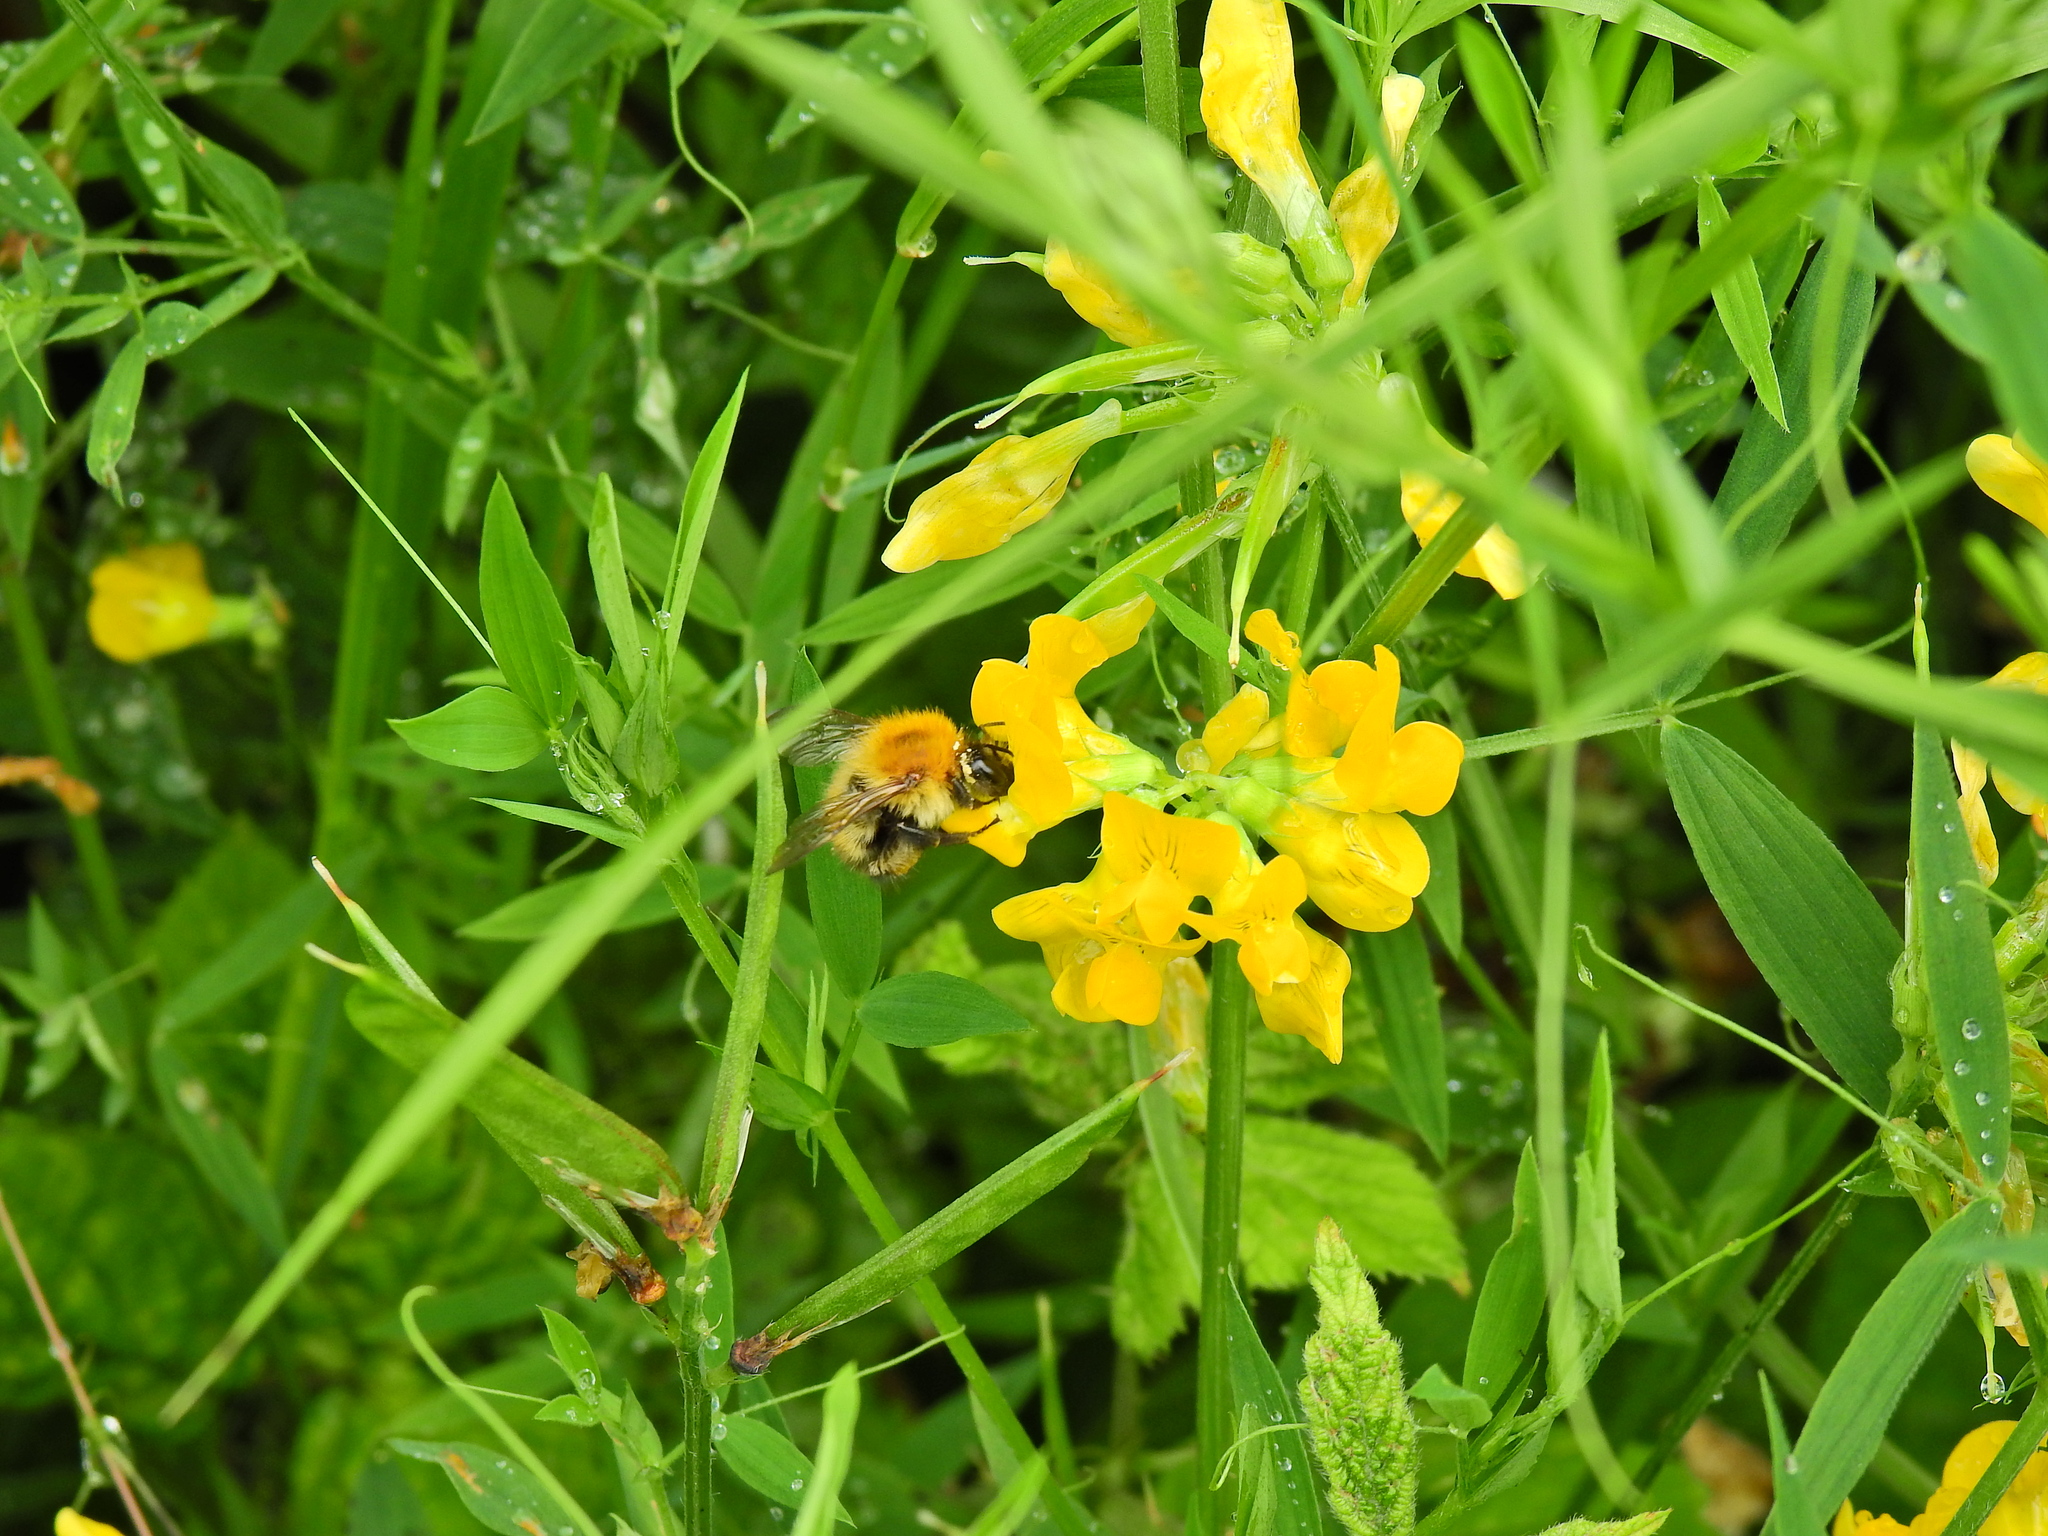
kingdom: Animalia
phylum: Arthropoda
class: Insecta
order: Hymenoptera
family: Apidae
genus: Bombus
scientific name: Bombus pascuorum
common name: Common carder bee
